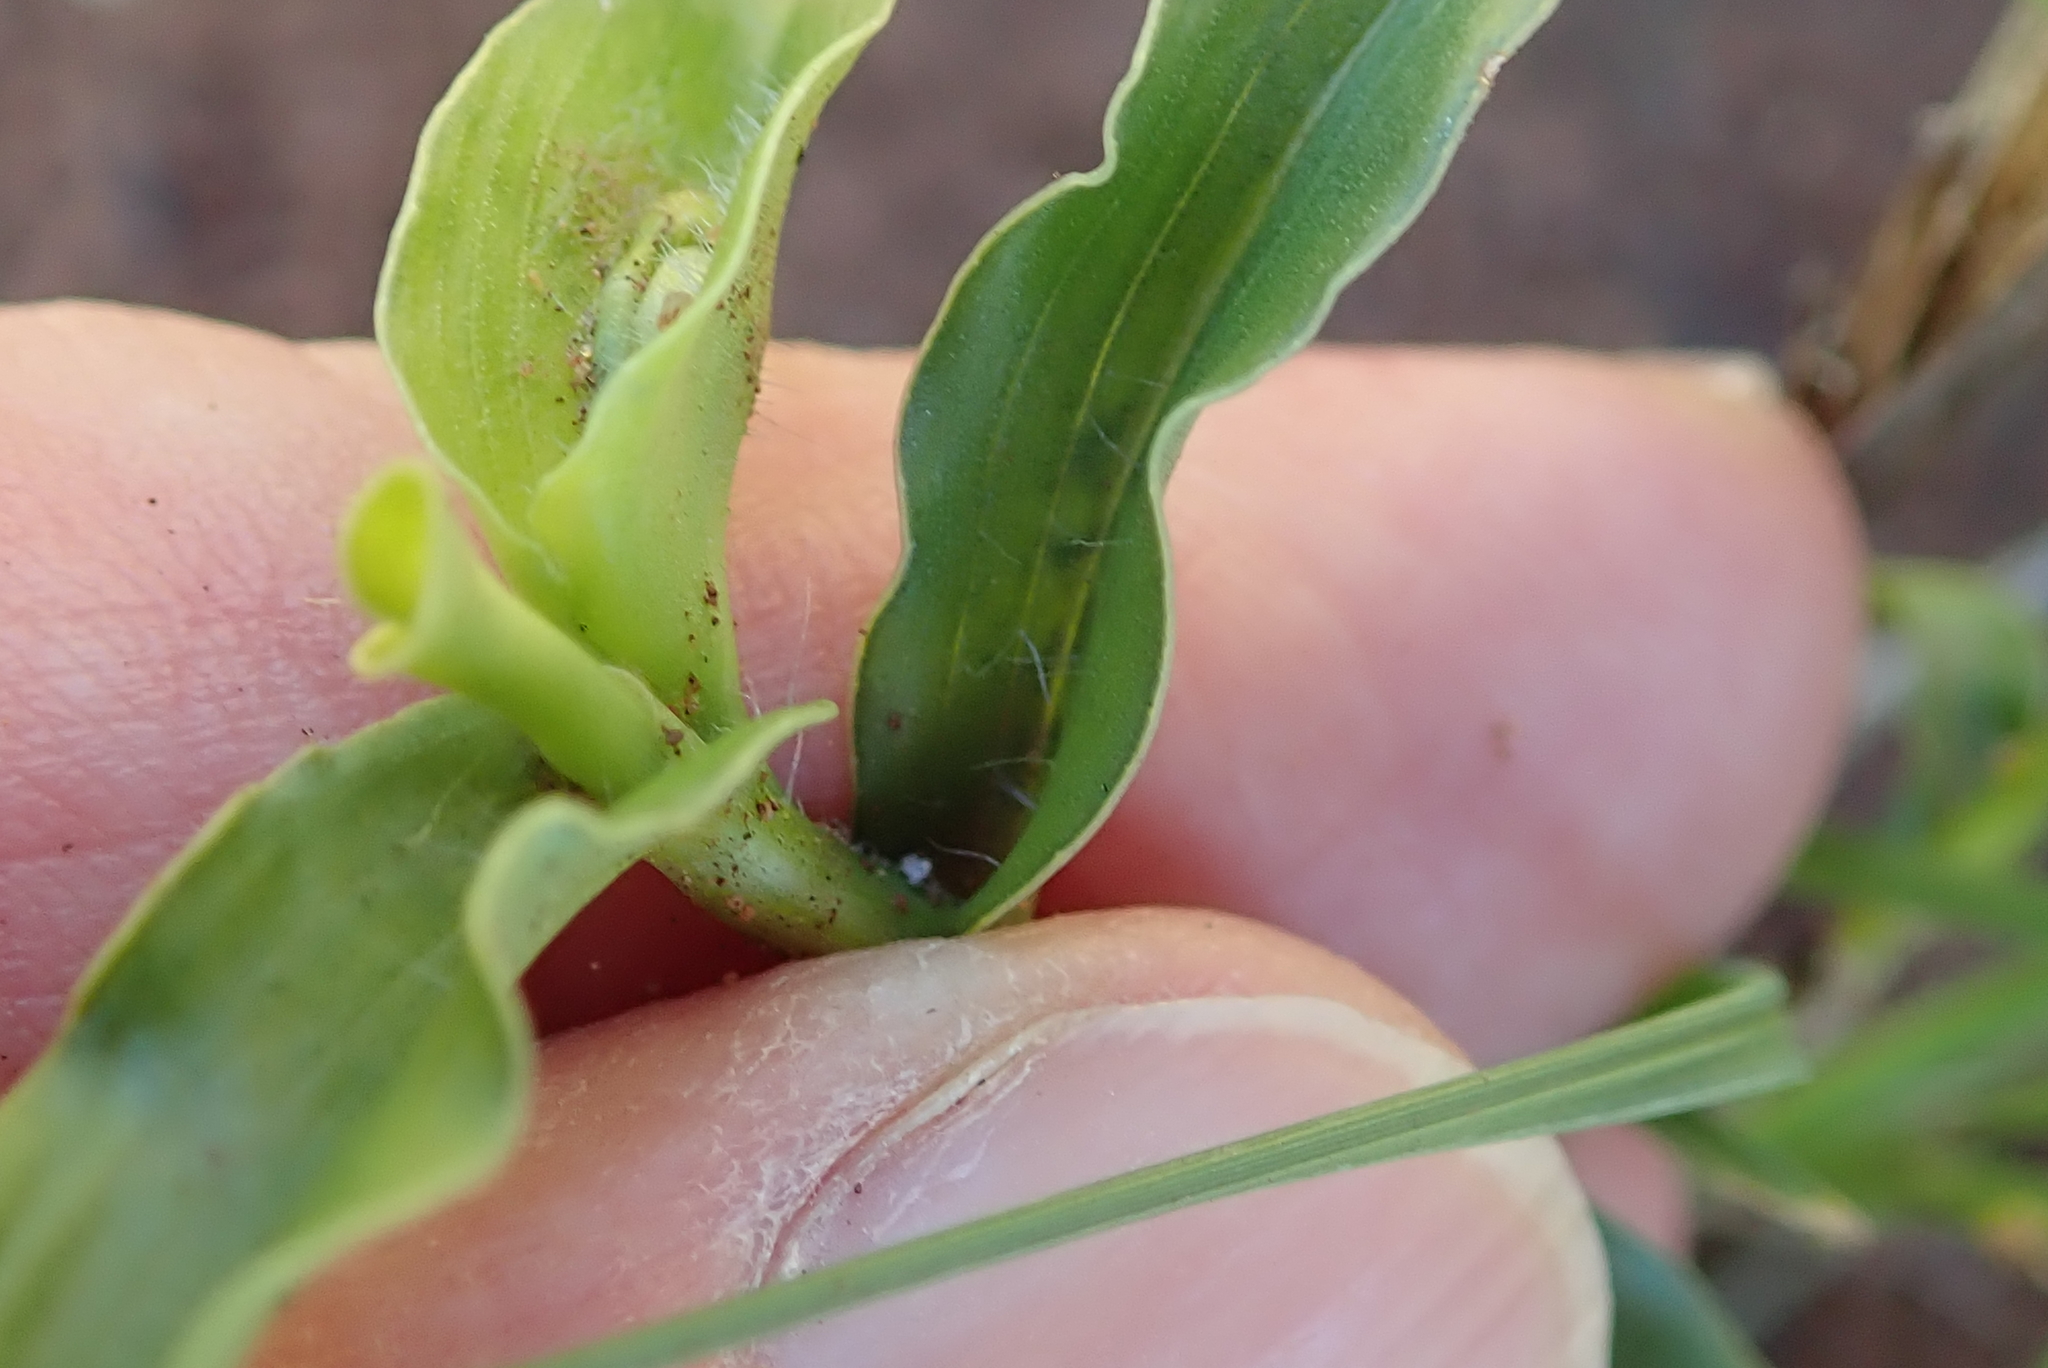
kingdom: Plantae
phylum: Tracheophyta
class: Liliopsida
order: Commelinales
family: Commelinaceae
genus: Commelina
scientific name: Commelina africana
